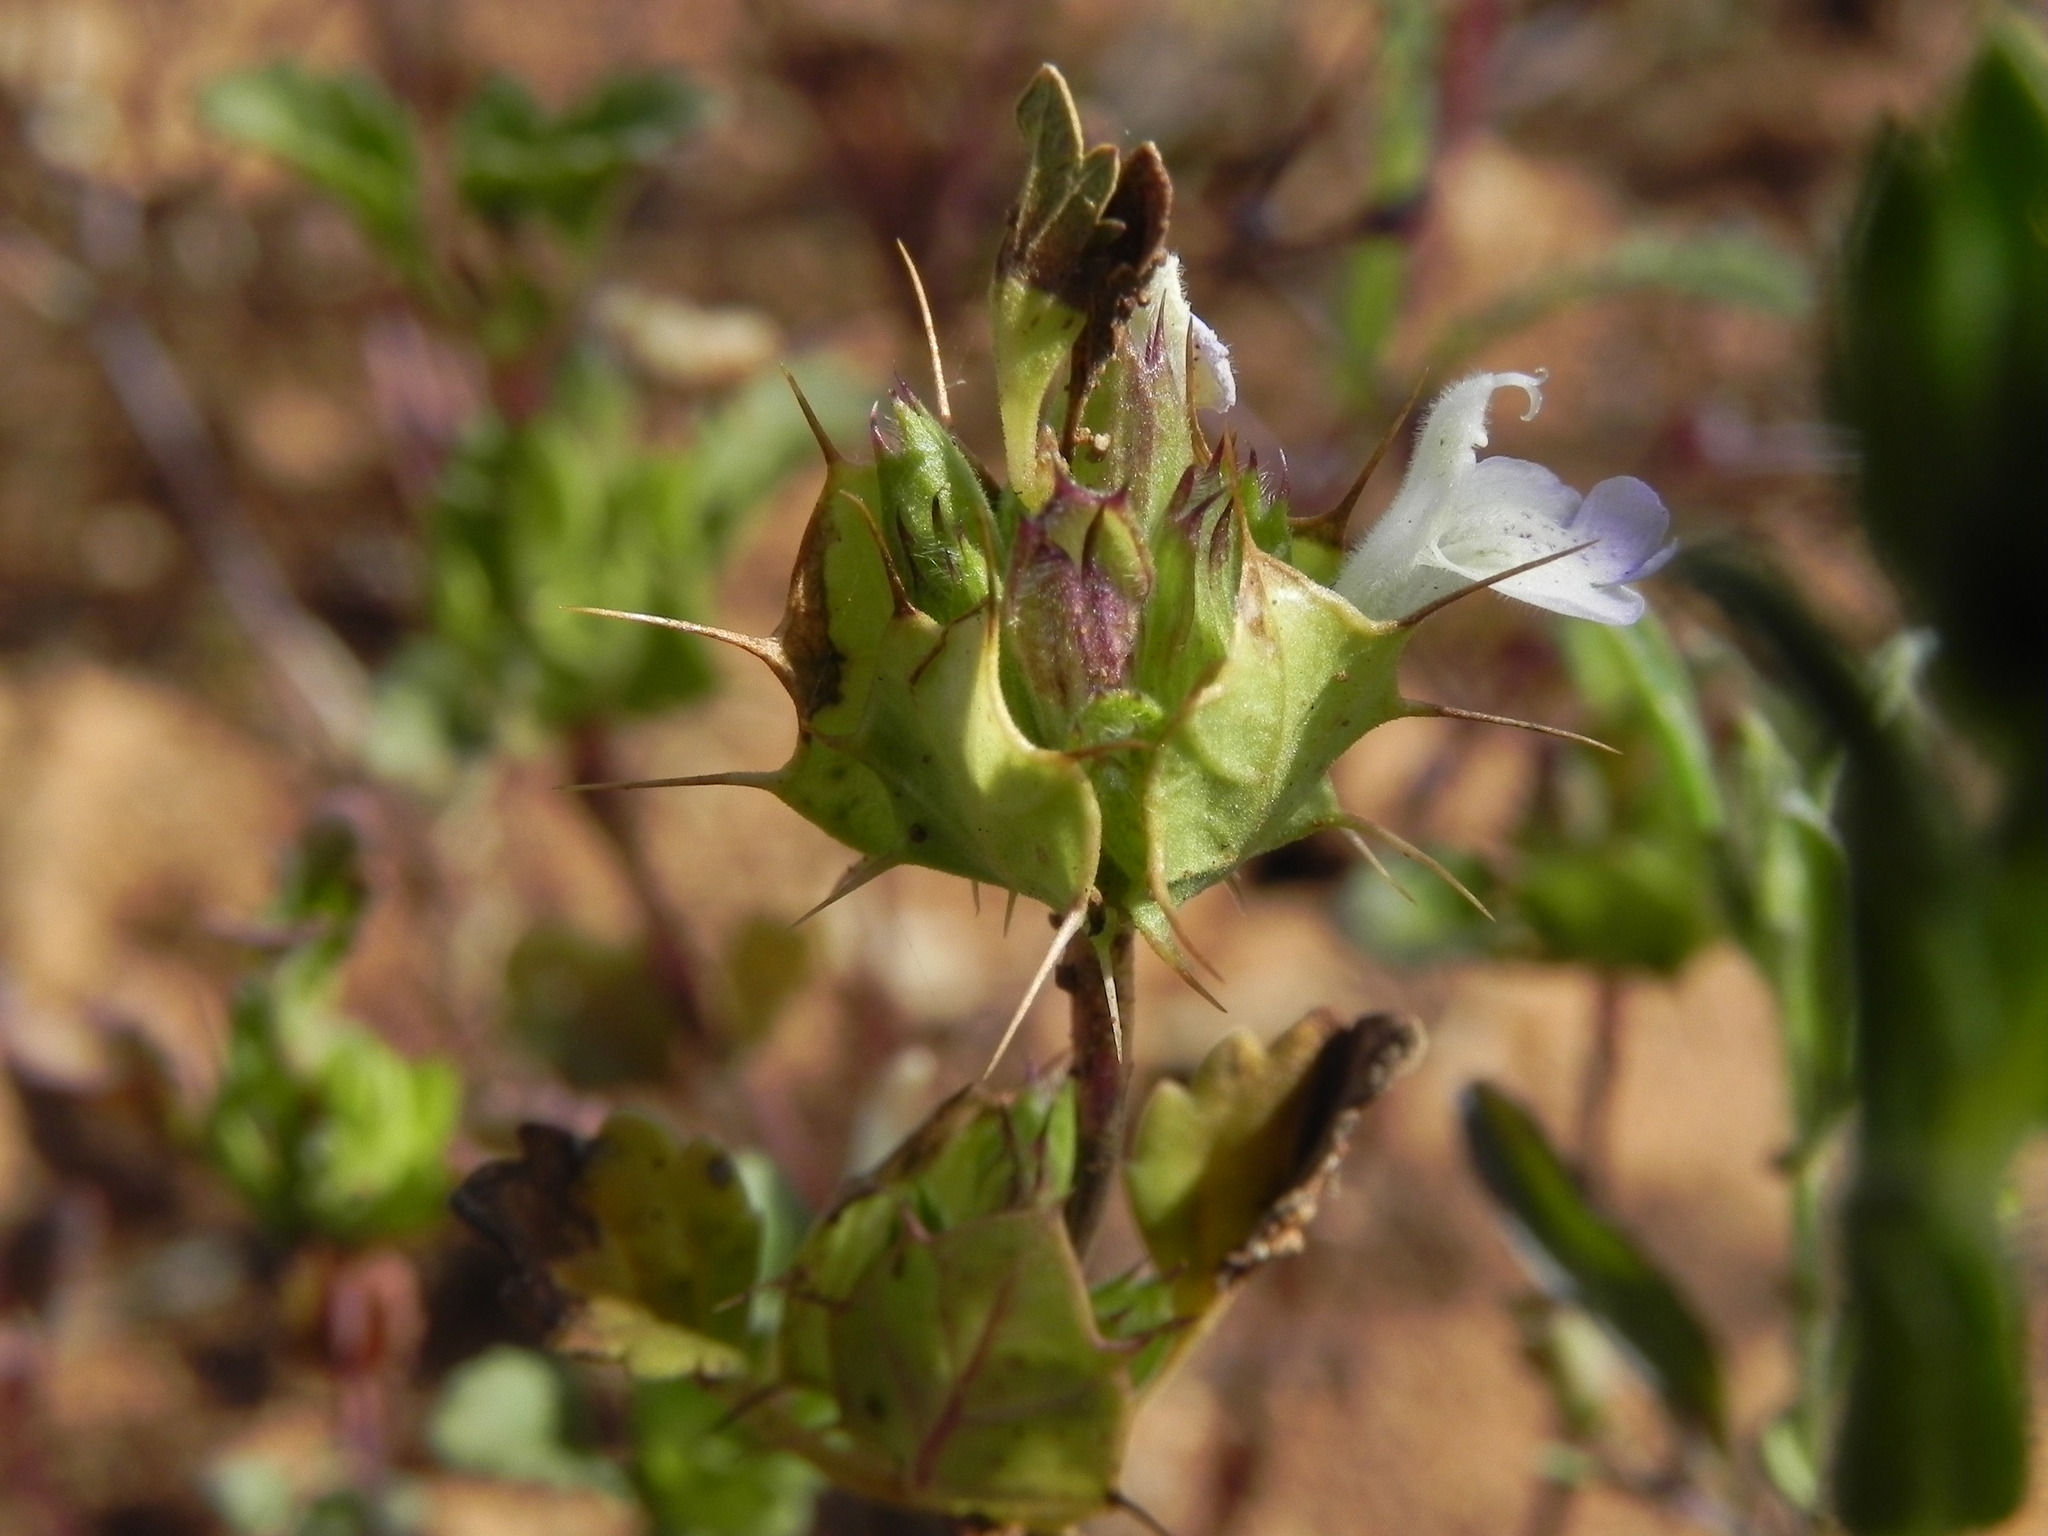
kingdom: Plantae
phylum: Tracheophyta
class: Magnoliopsida
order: Lamiales
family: Lamiaceae
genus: Acanthomintha
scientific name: Acanthomintha ilicifolia
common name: San diego thorn-mint
